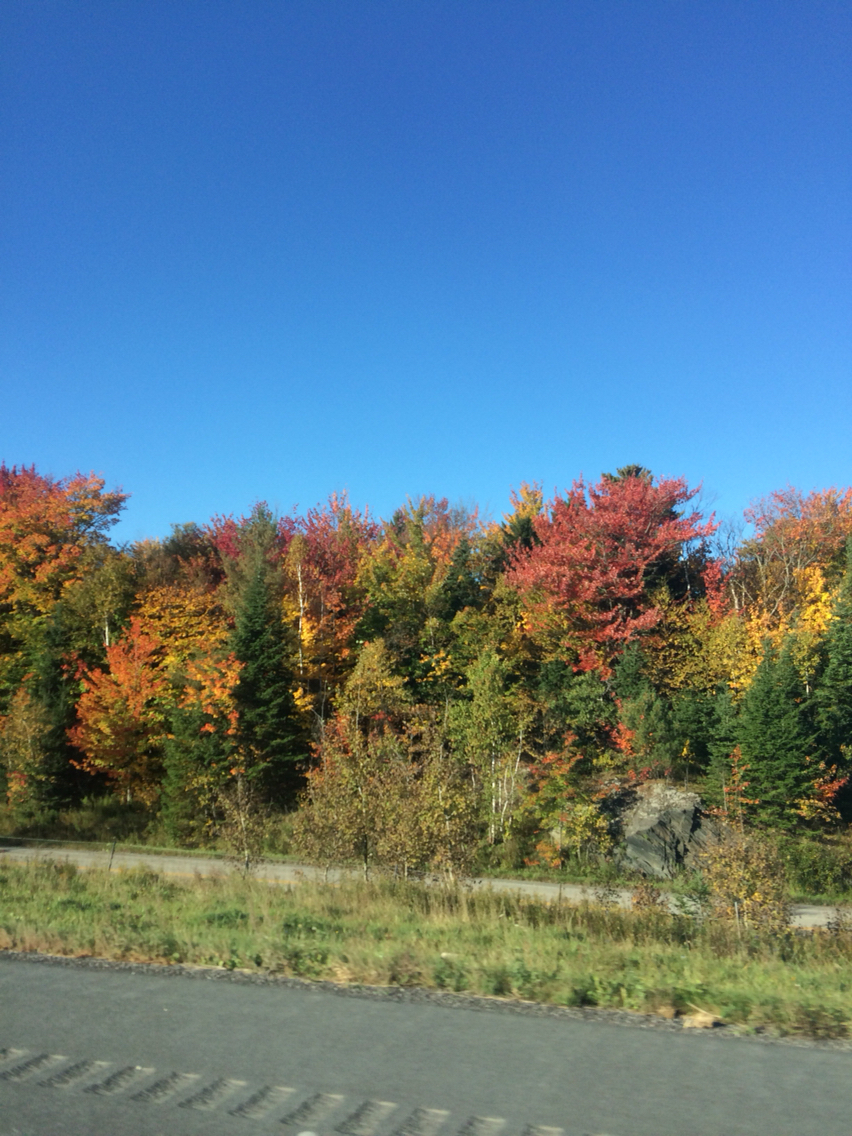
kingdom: Plantae
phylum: Tracheophyta
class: Magnoliopsida
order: Sapindales
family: Sapindaceae
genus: Acer
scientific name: Acer rubrum
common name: Red maple
